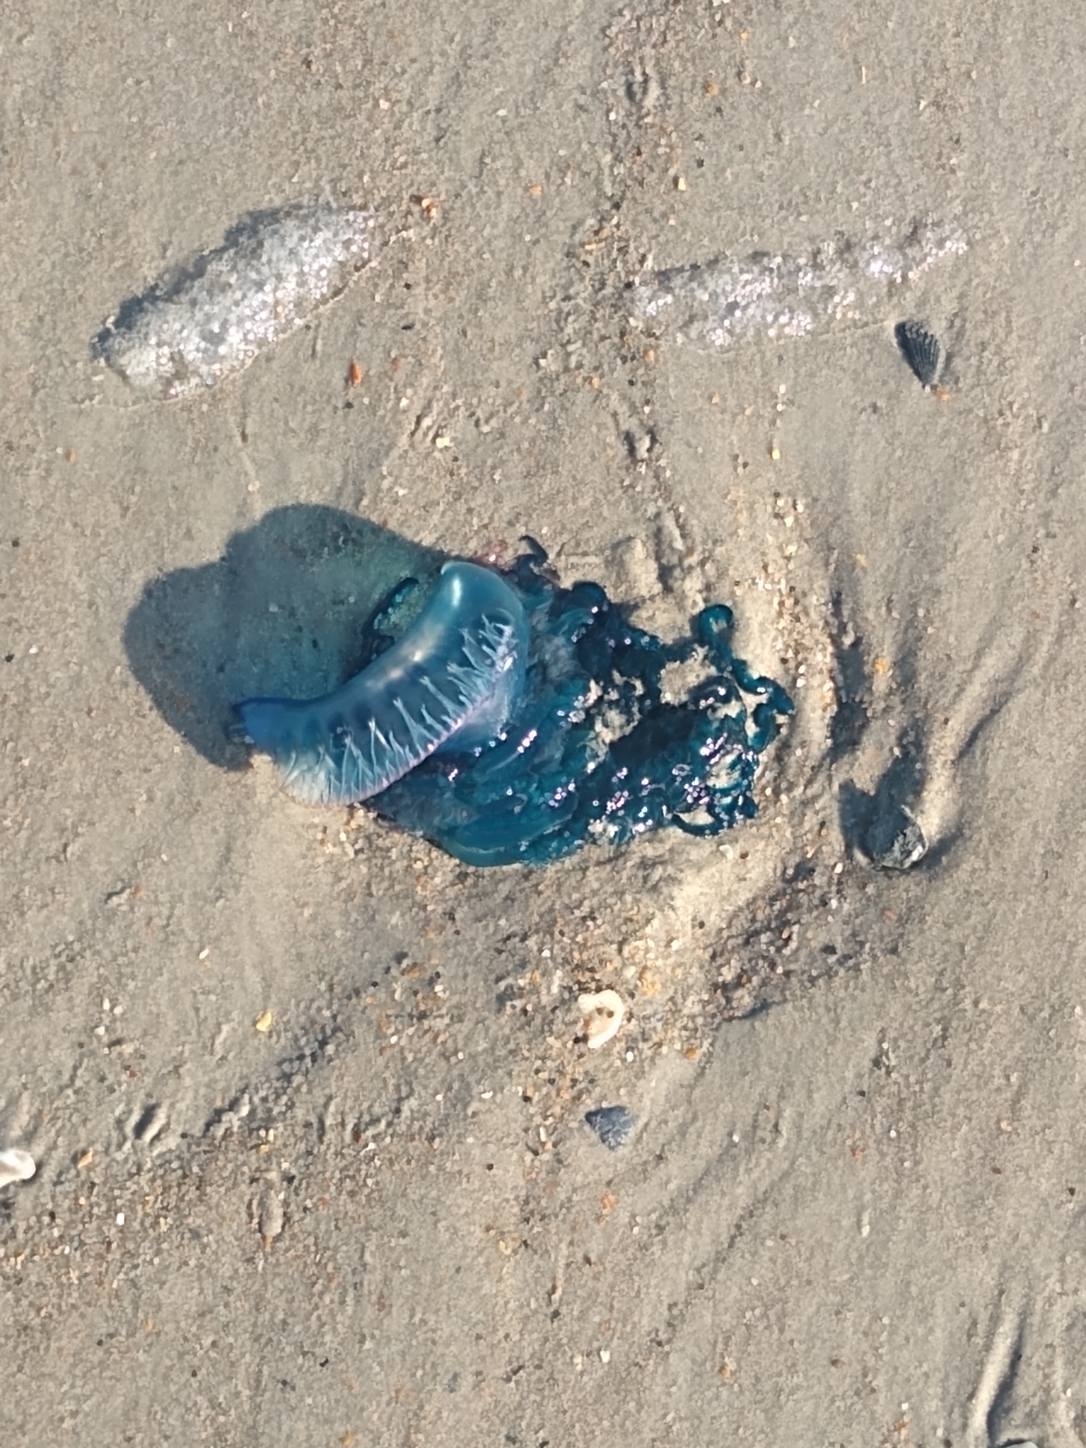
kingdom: Animalia
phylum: Cnidaria
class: Hydrozoa
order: Siphonophorae
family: Physaliidae
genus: Physalia
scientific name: Physalia physalis
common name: Portuguese man-of-war
